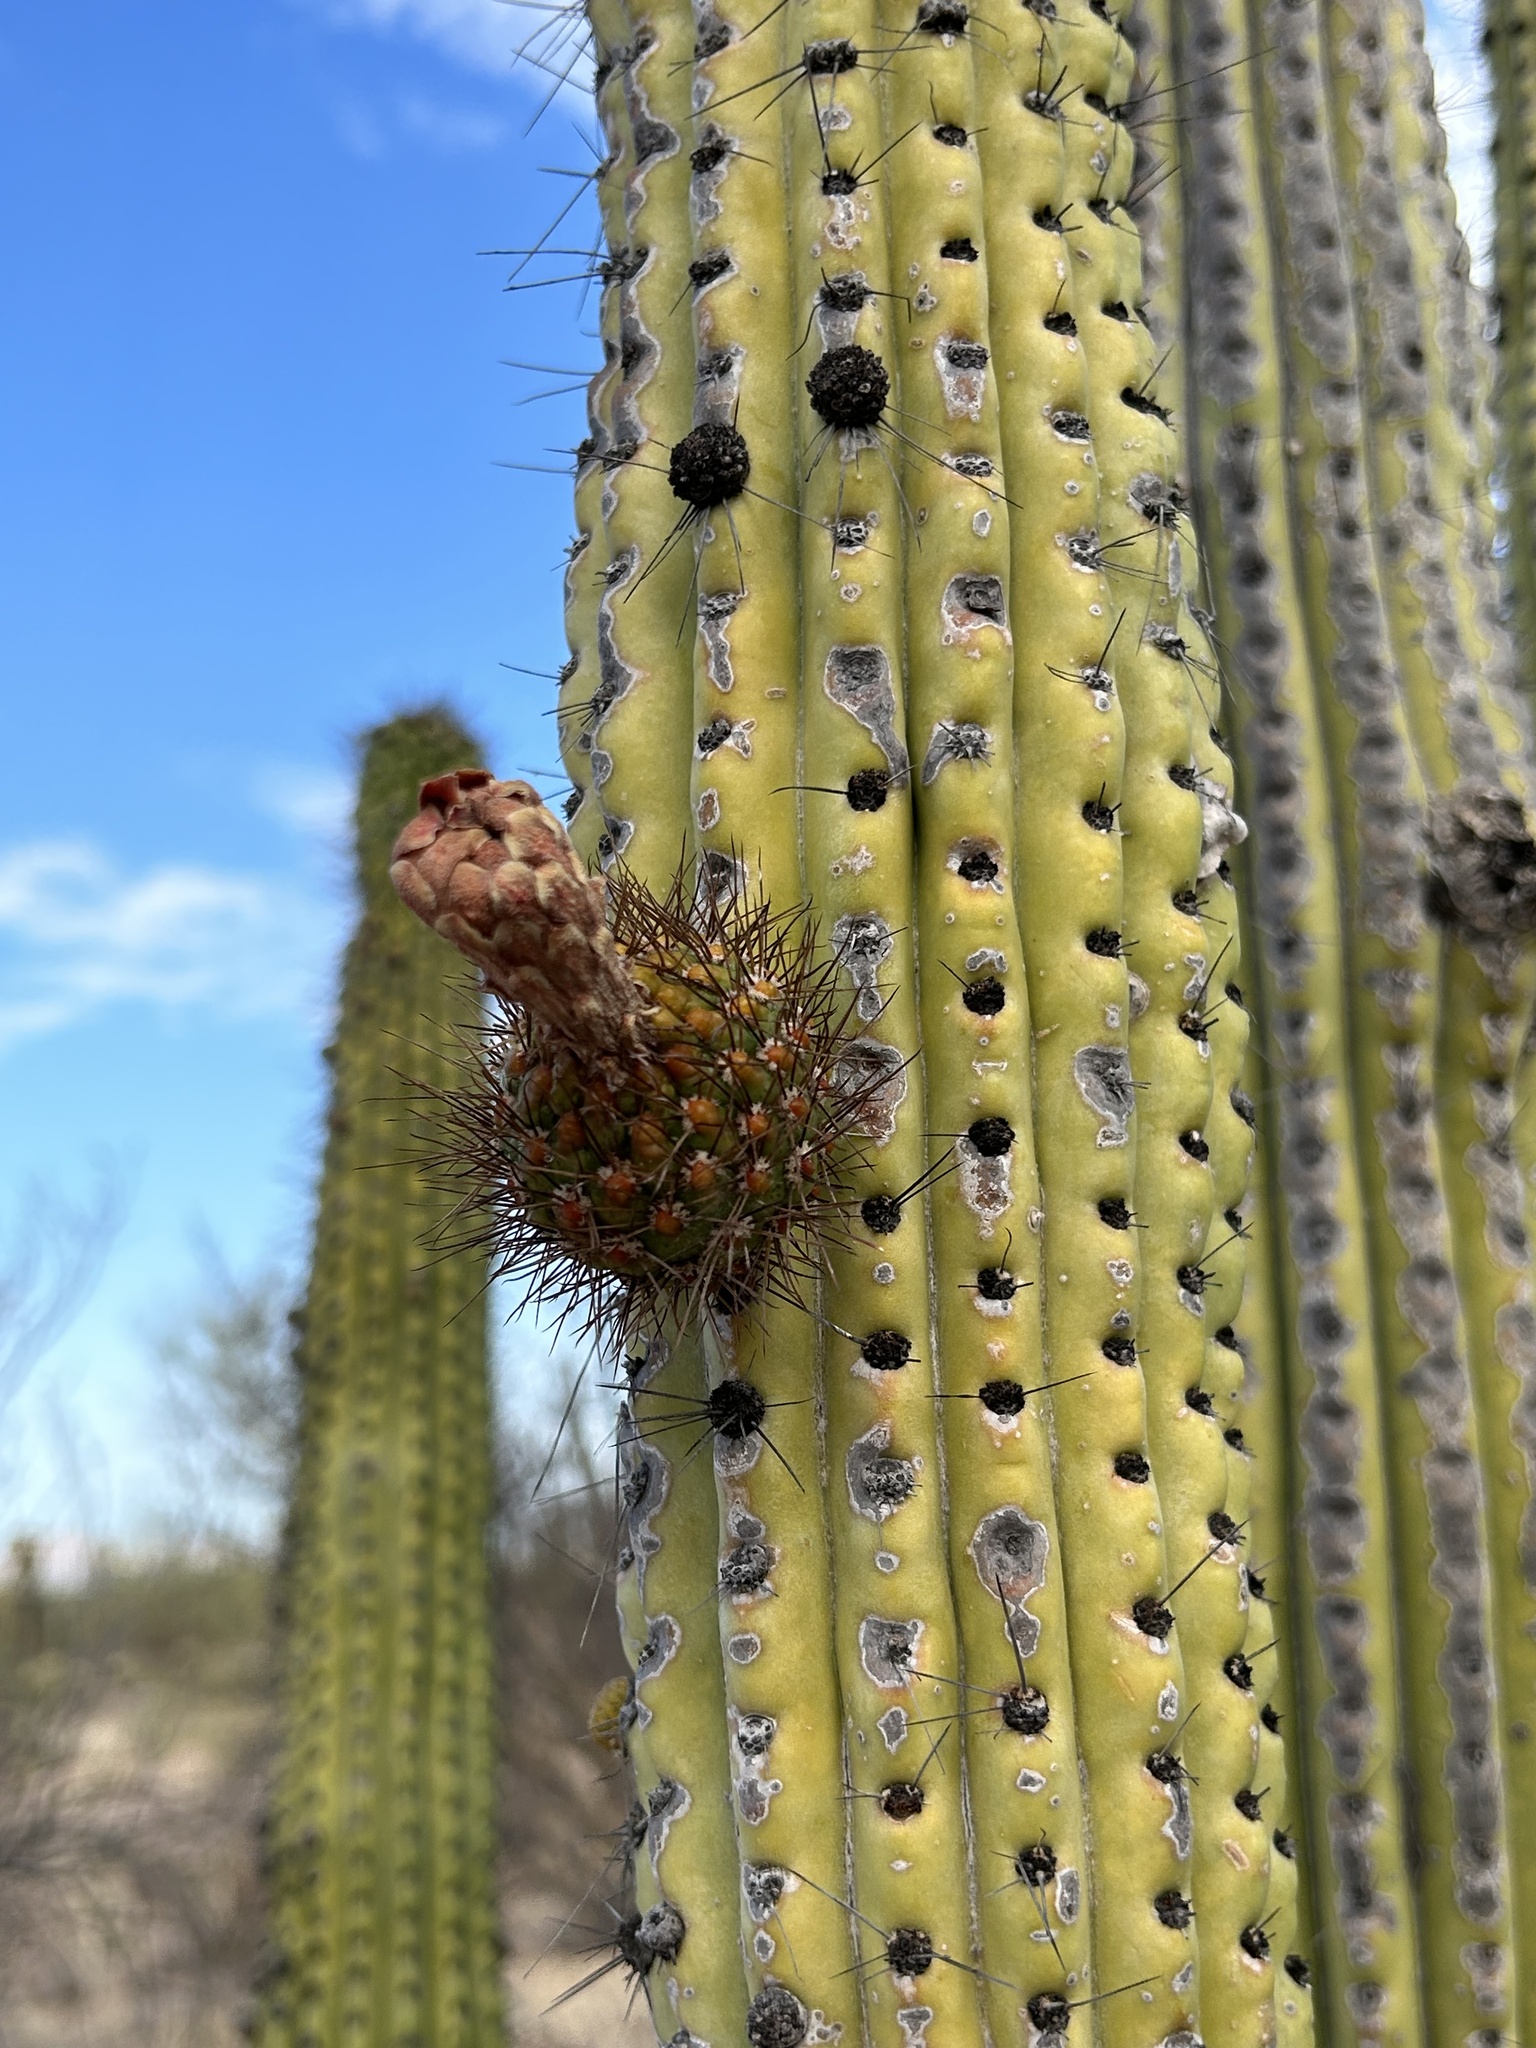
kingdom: Plantae
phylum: Tracheophyta
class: Magnoliopsida
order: Caryophyllales
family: Cactaceae
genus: Stenocereus
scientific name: Stenocereus thurberi
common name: Organ pipe cactus
